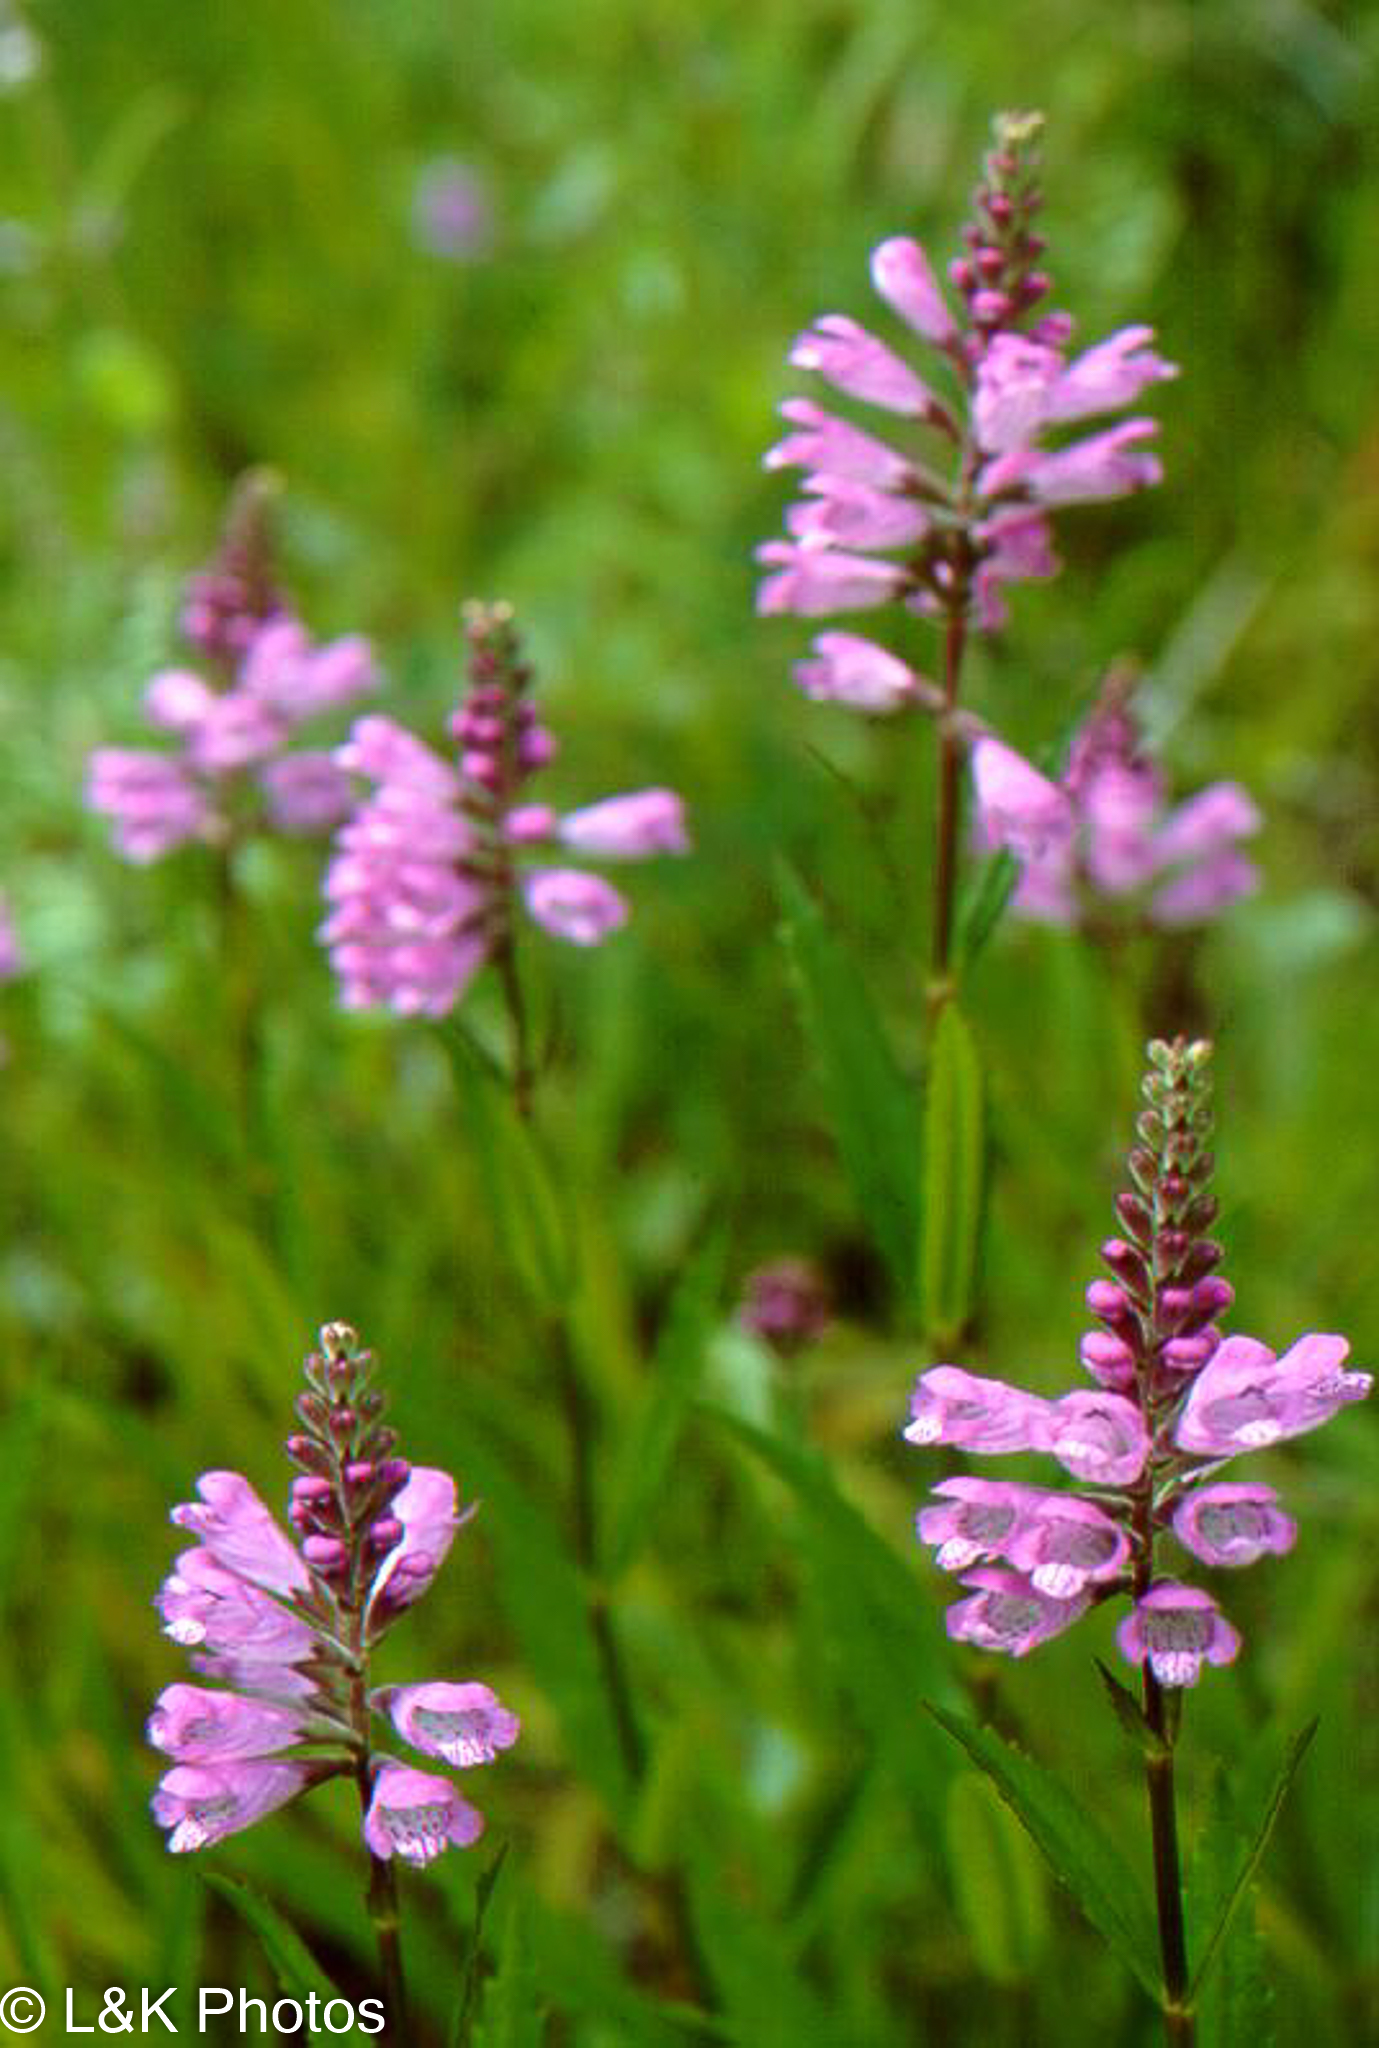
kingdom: Plantae
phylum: Tracheophyta
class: Magnoliopsida
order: Lamiales
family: Lamiaceae
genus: Physostegia
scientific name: Physostegia ledinghamii
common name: Ledingham's false dragonhead
